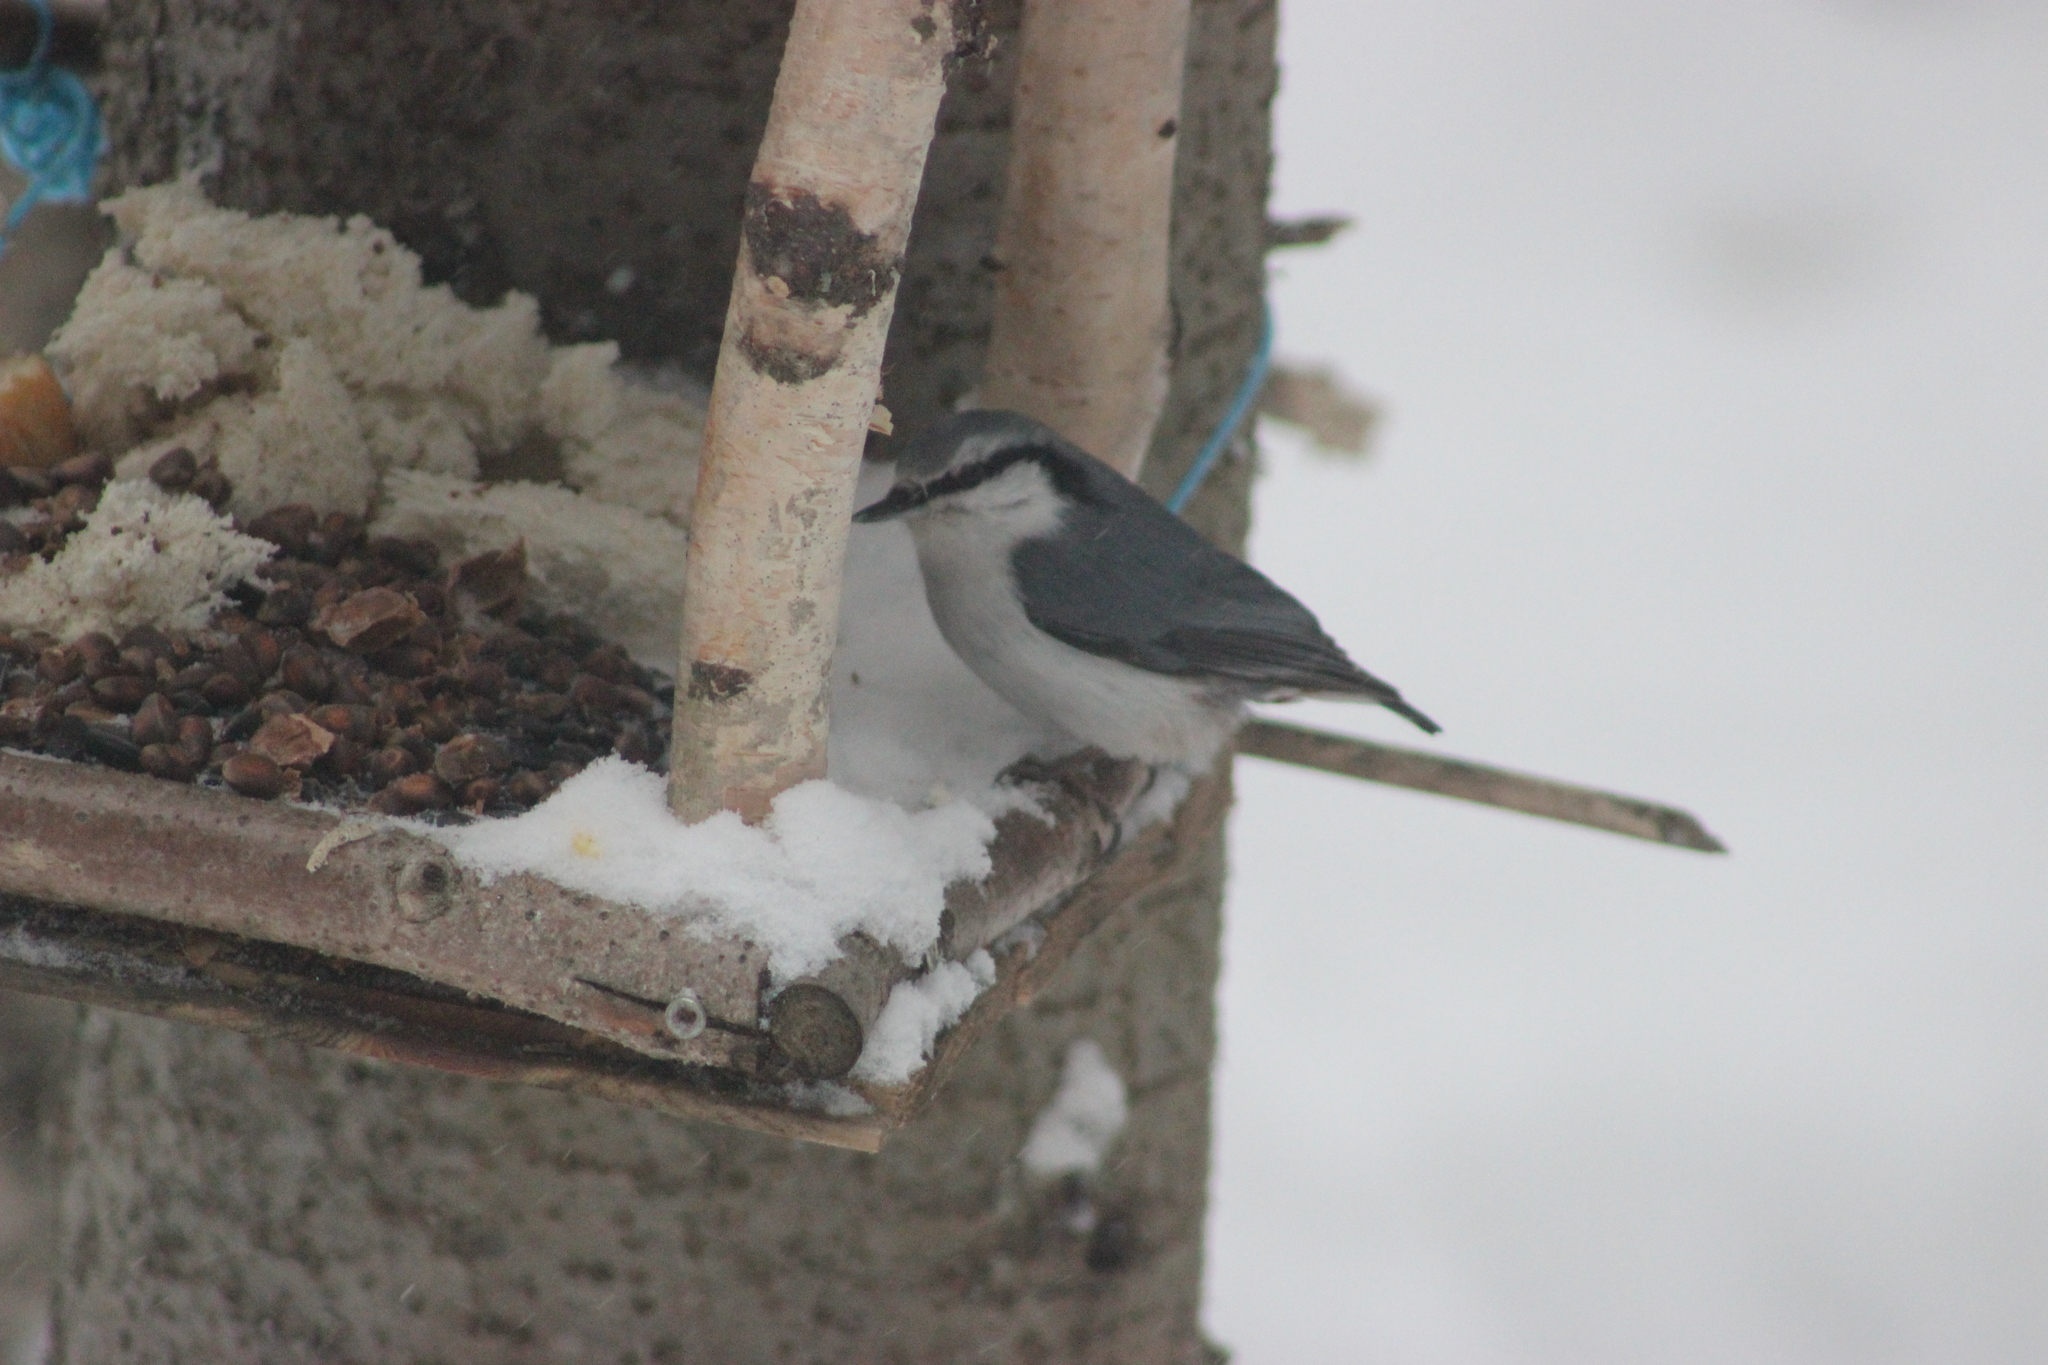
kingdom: Animalia
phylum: Chordata
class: Aves
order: Passeriformes
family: Sittidae
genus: Sitta
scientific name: Sitta europaea
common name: Eurasian nuthatch
